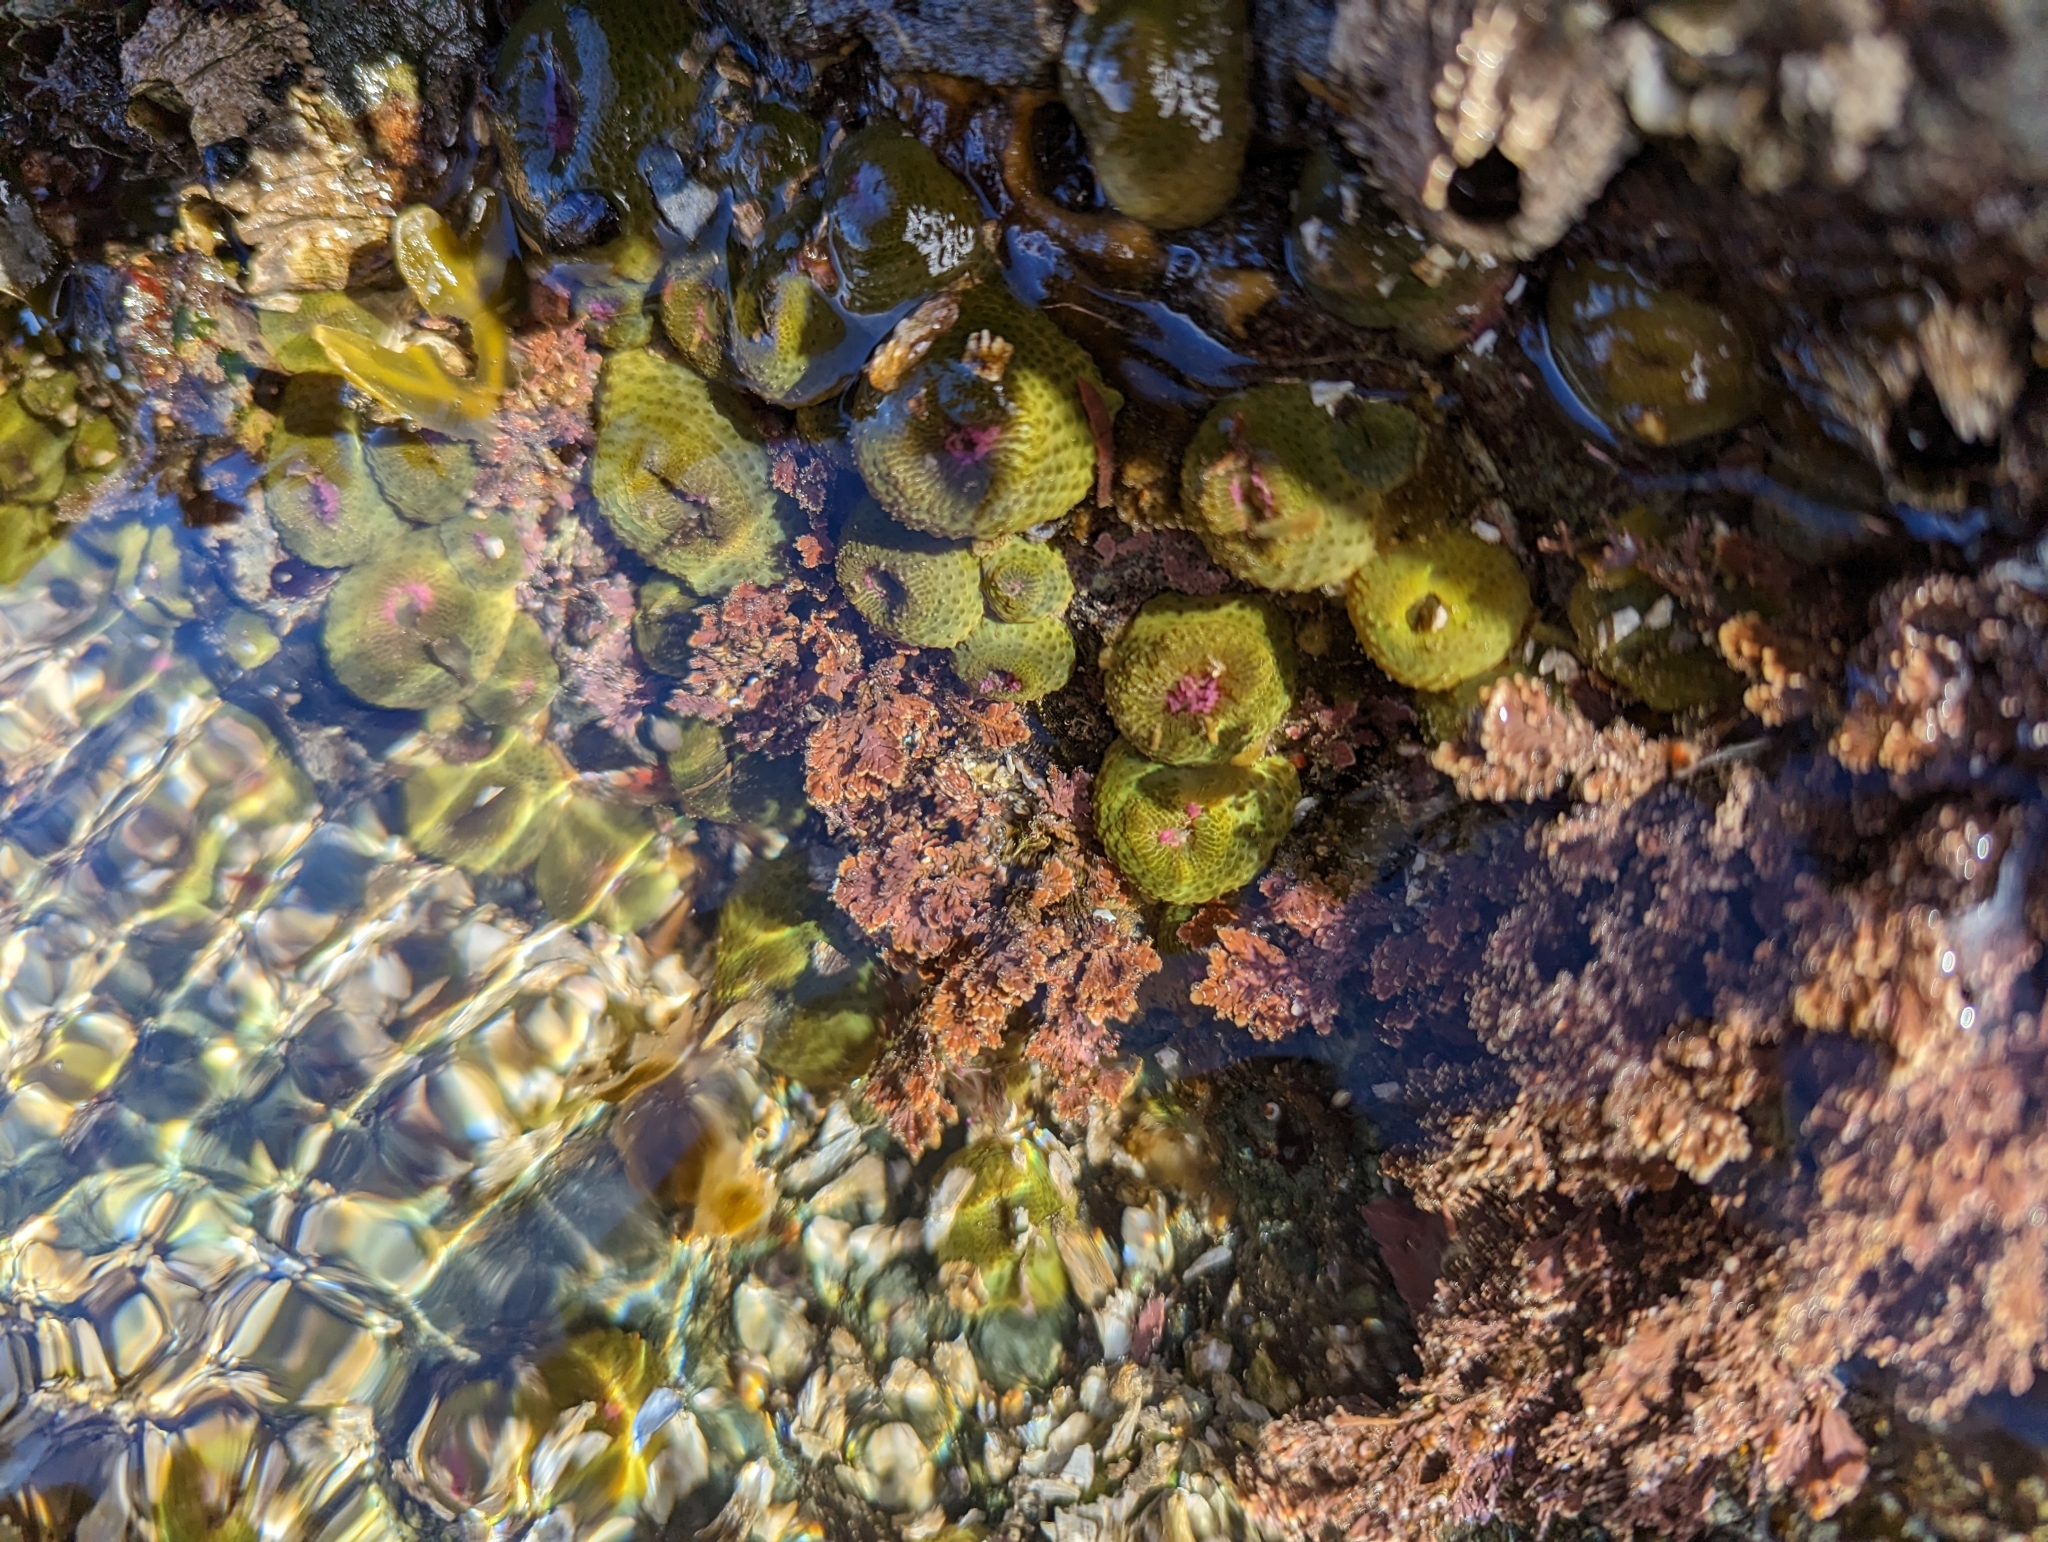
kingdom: Animalia
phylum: Cnidaria
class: Anthozoa
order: Actiniaria
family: Actiniidae
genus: Anthopleura
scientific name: Anthopleura elegantissima
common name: Clonal anemone
